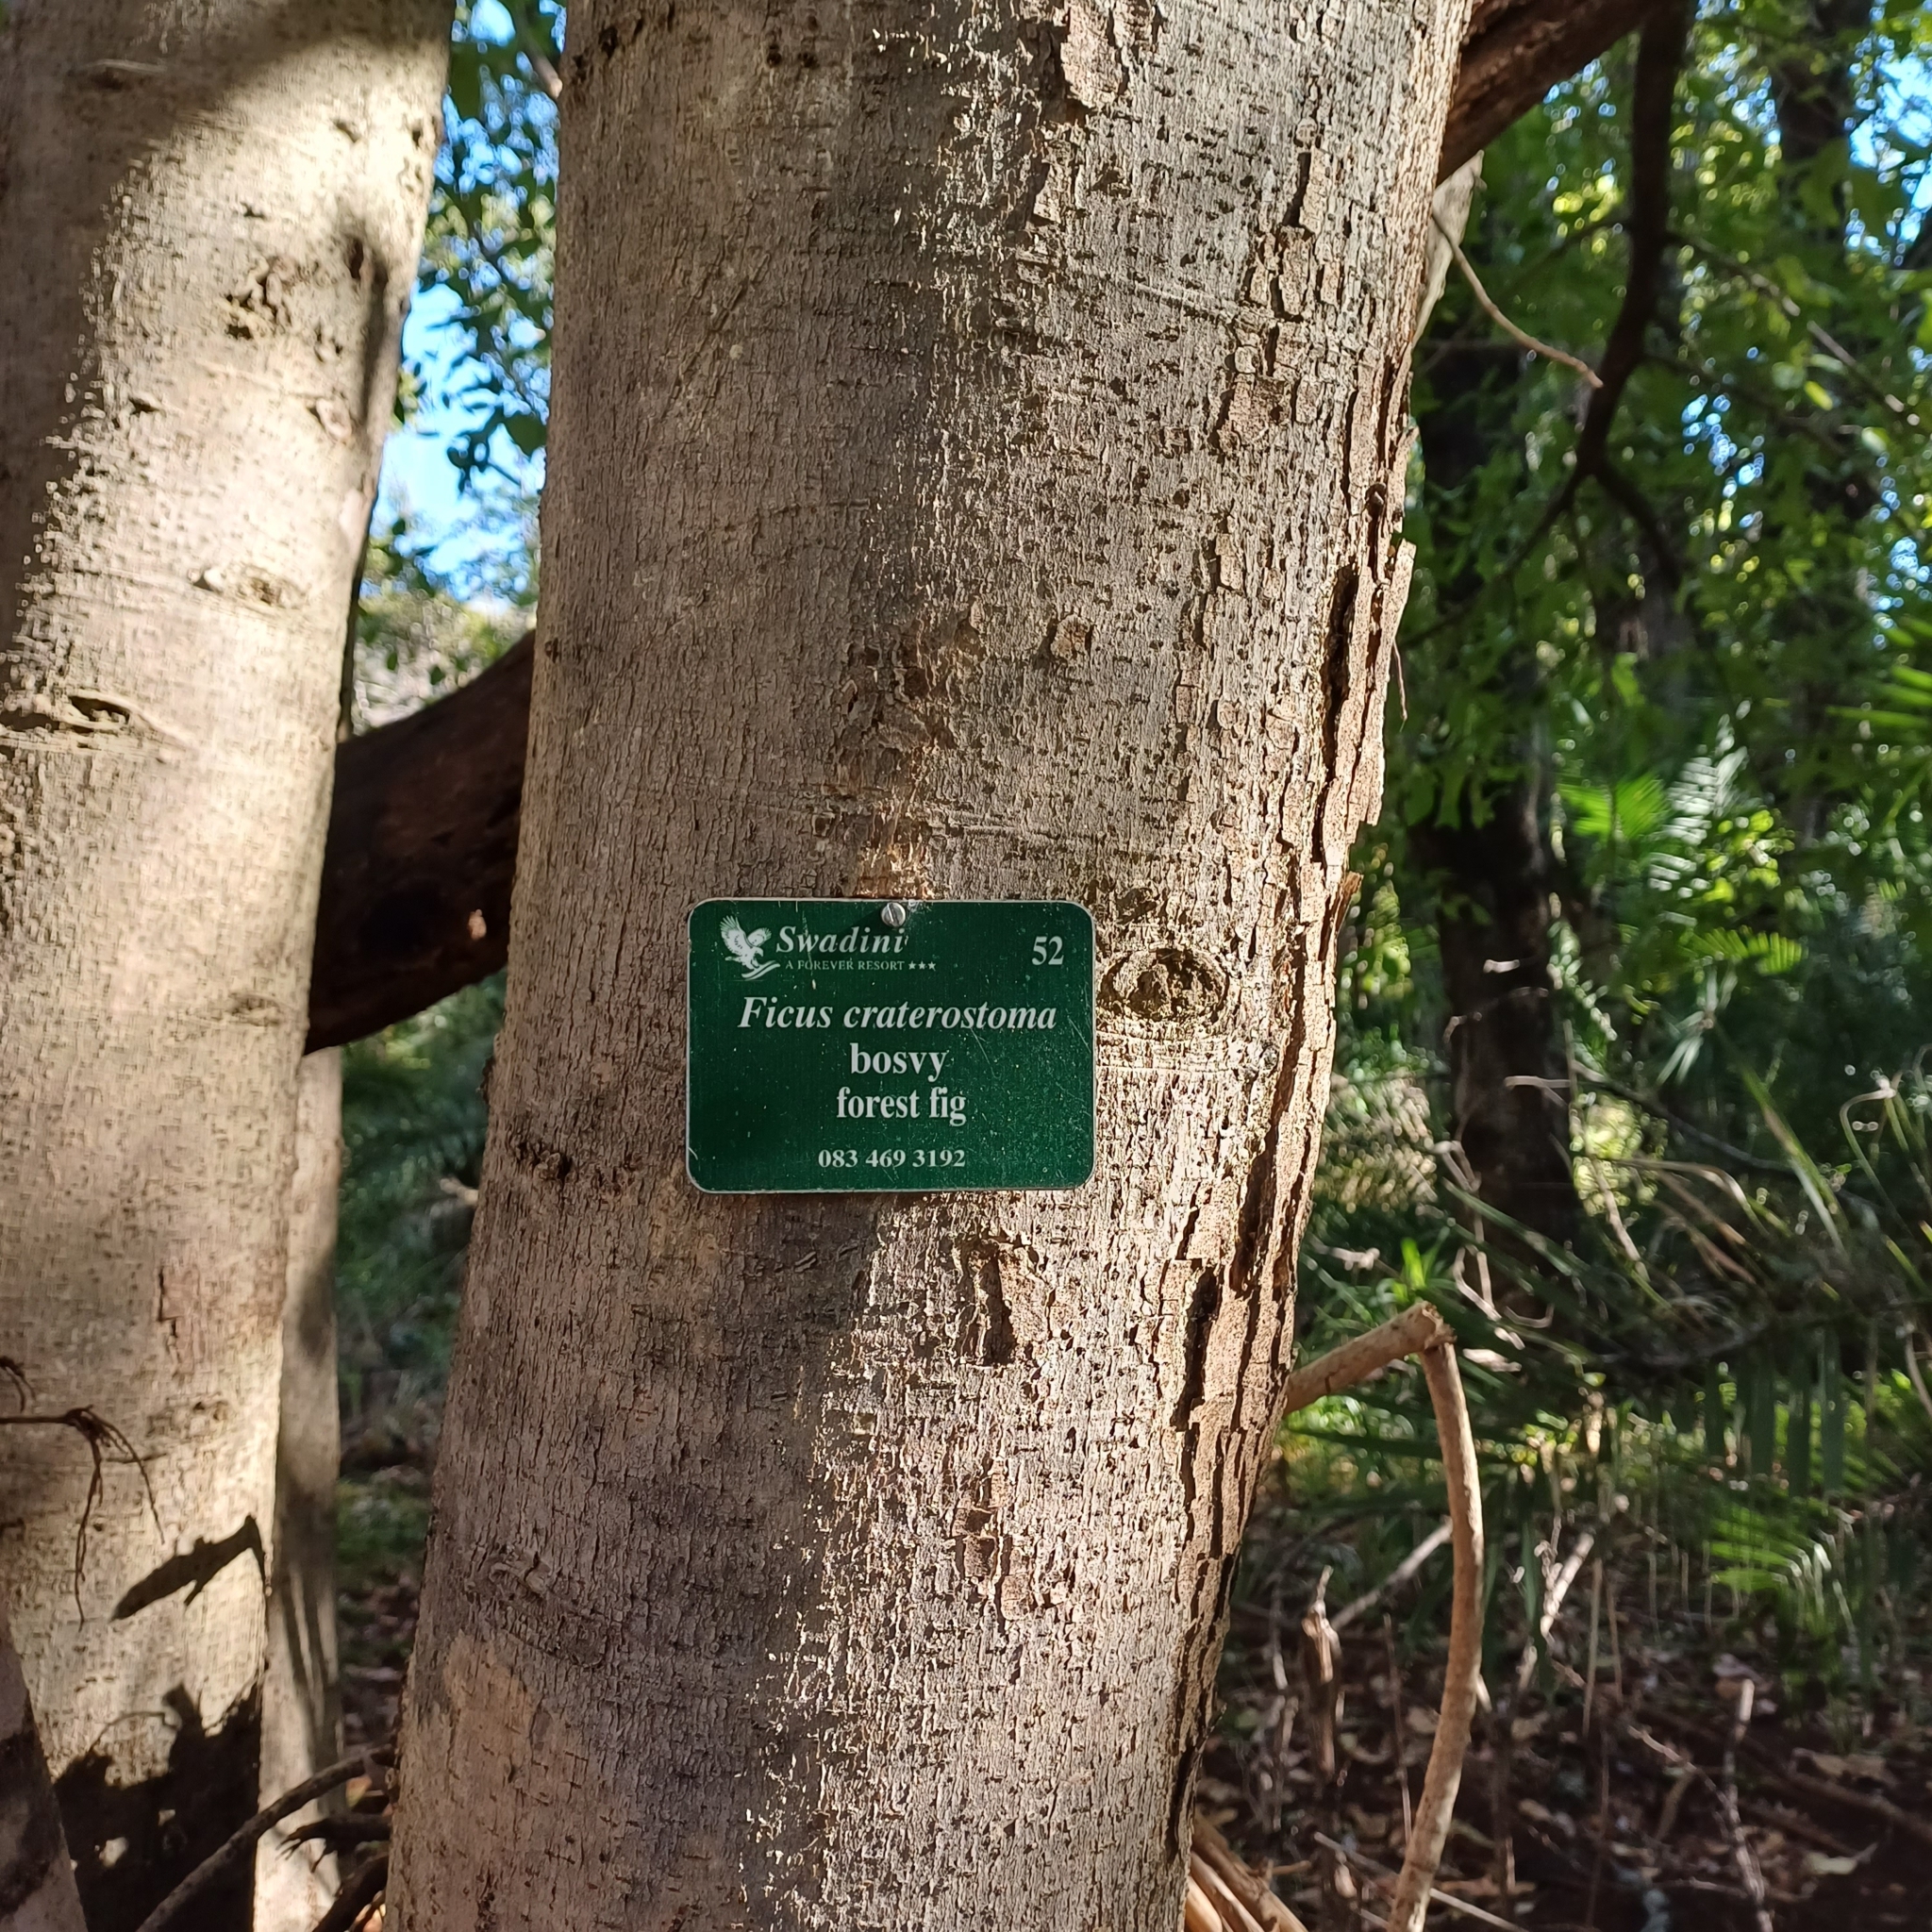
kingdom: Plantae
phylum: Tracheophyta
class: Magnoliopsida
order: Rosales
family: Moraceae
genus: Ficus
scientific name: Ficus ingens
